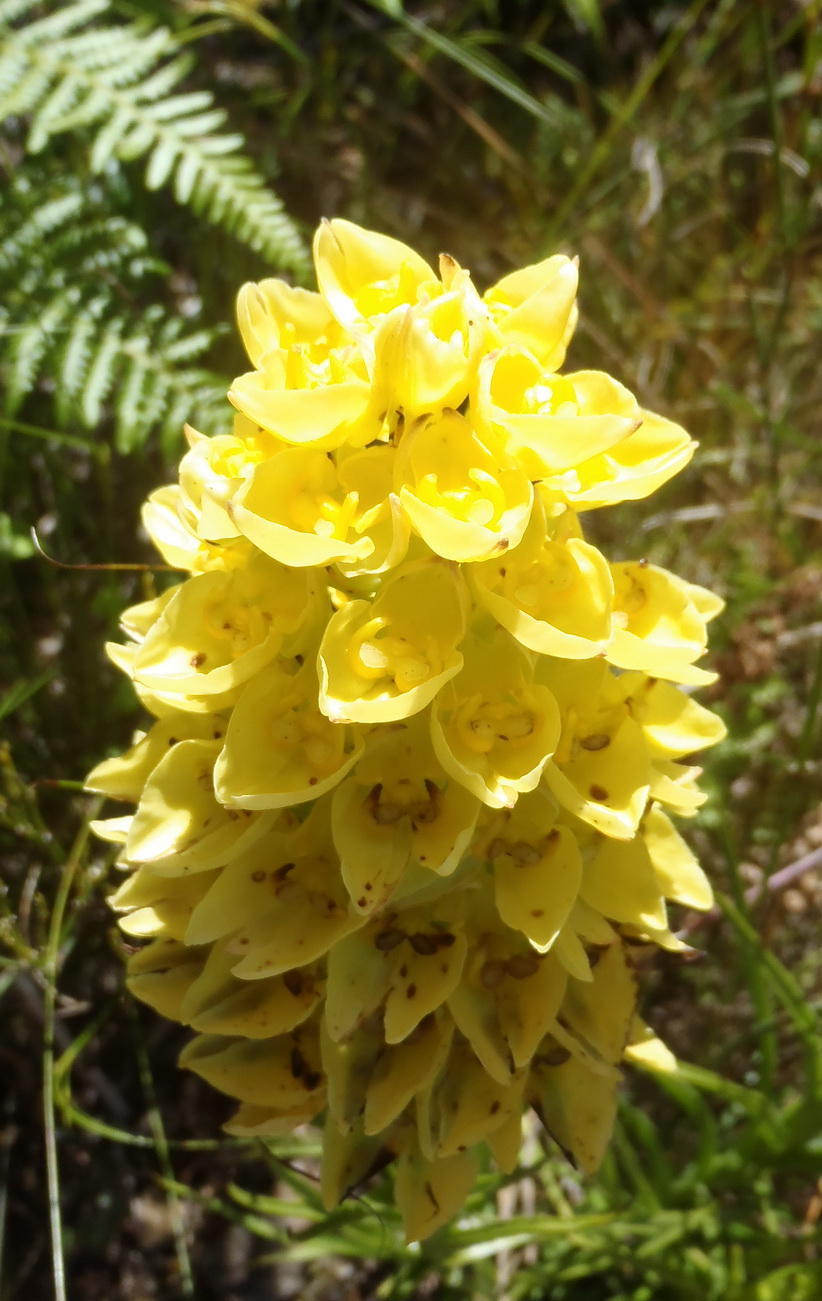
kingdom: Plantae
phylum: Tracheophyta
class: Liliopsida
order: Asparagales
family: Orchidaceae
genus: Ceratandra
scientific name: Ceratandra grandiflora
